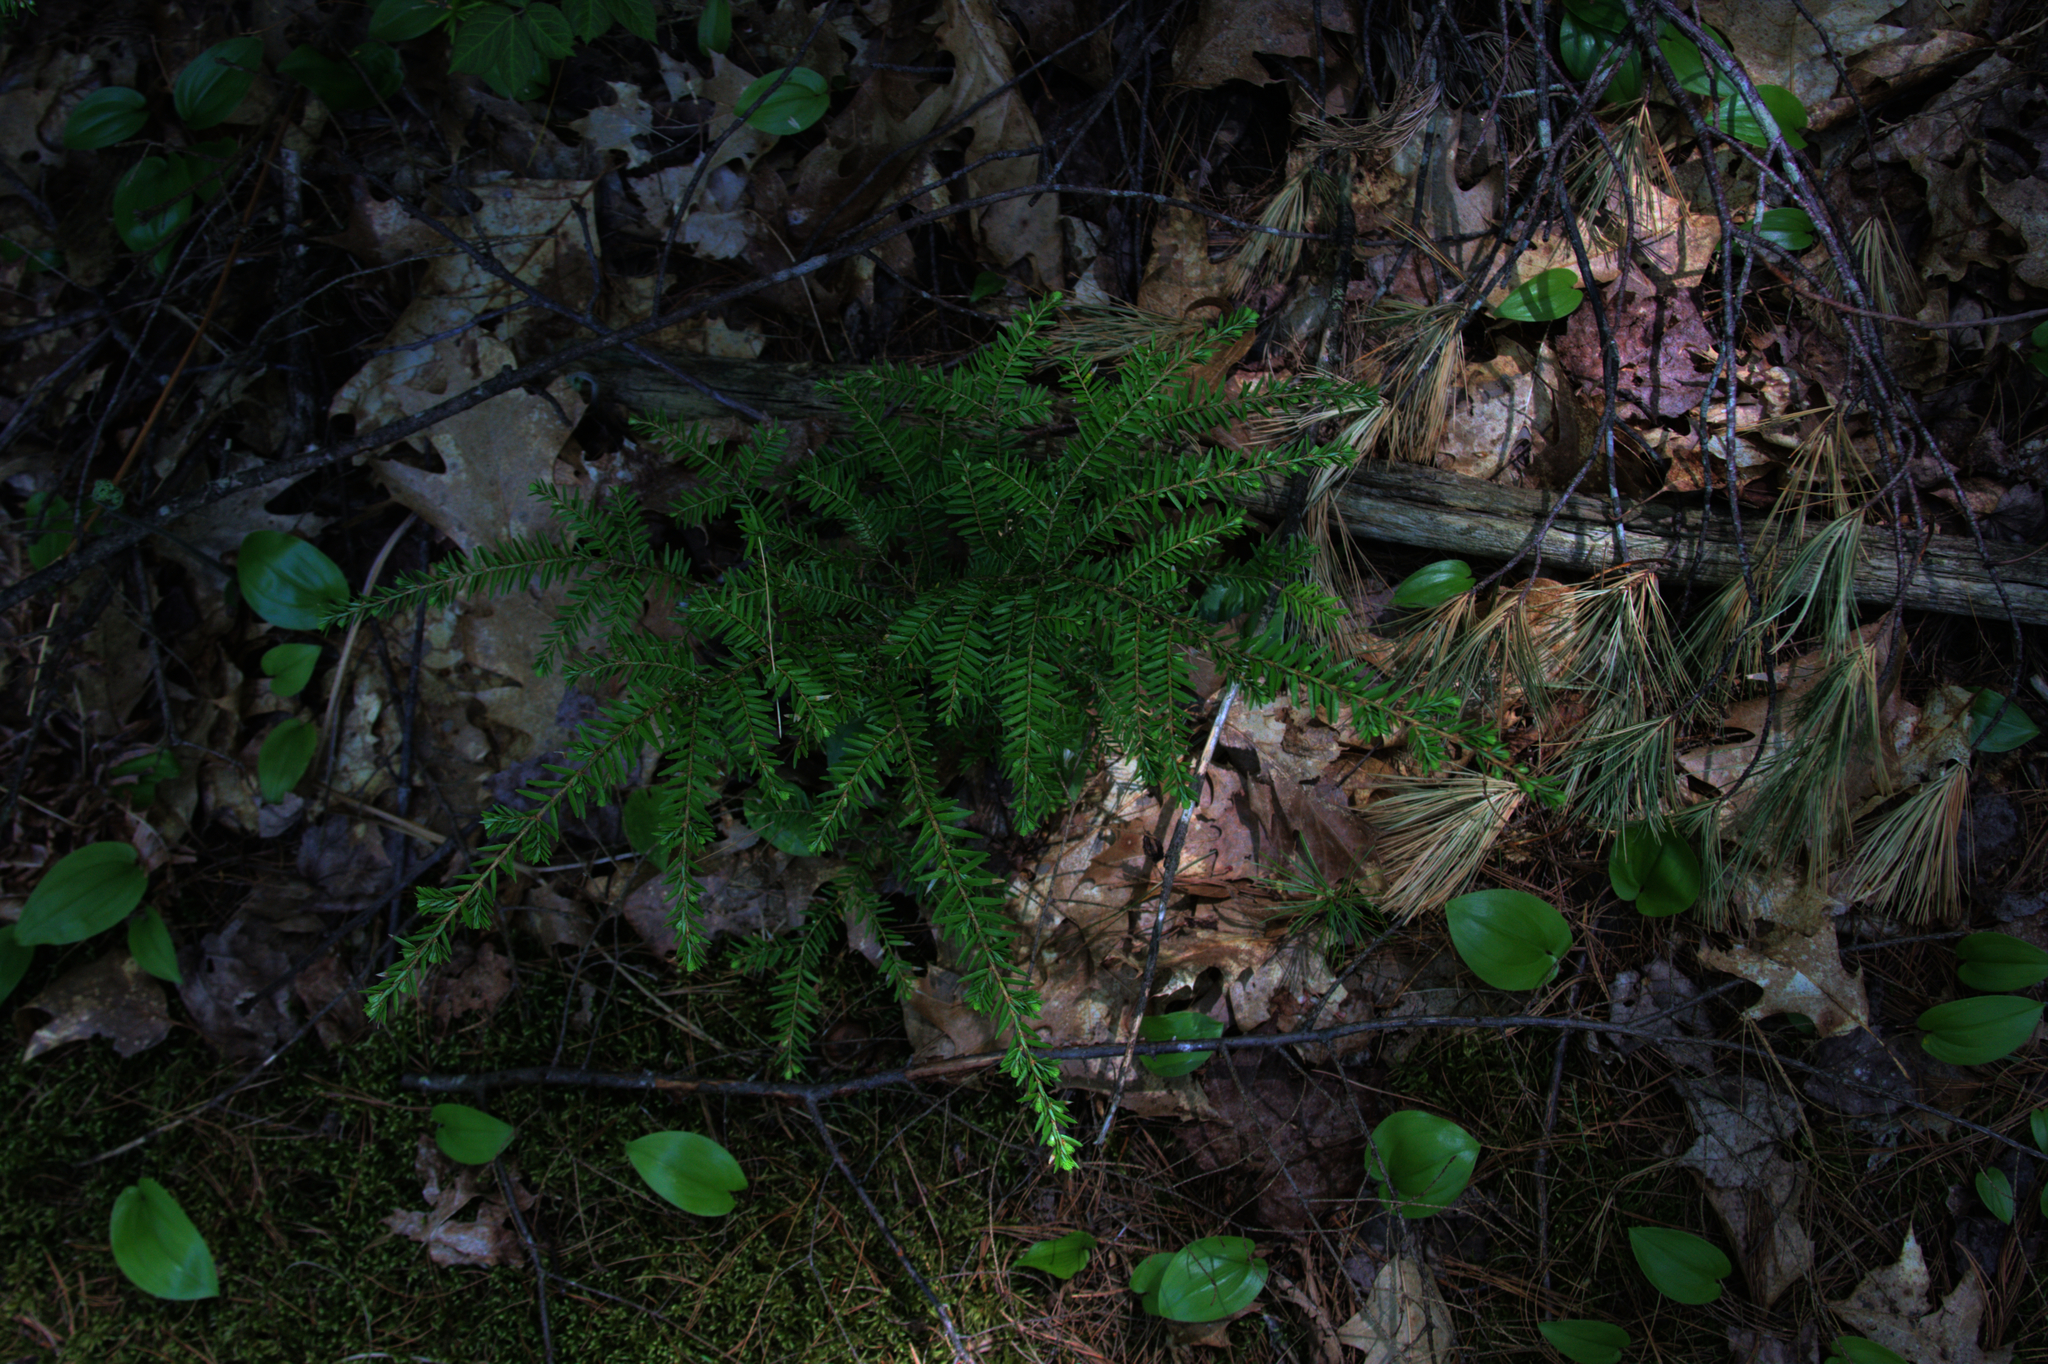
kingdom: Plantae
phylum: Tracheophyta
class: Pinopsida
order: Pinales
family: Pinaceae
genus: Tsuga
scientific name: Tsuga canadensis
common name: Eastern hemlock
